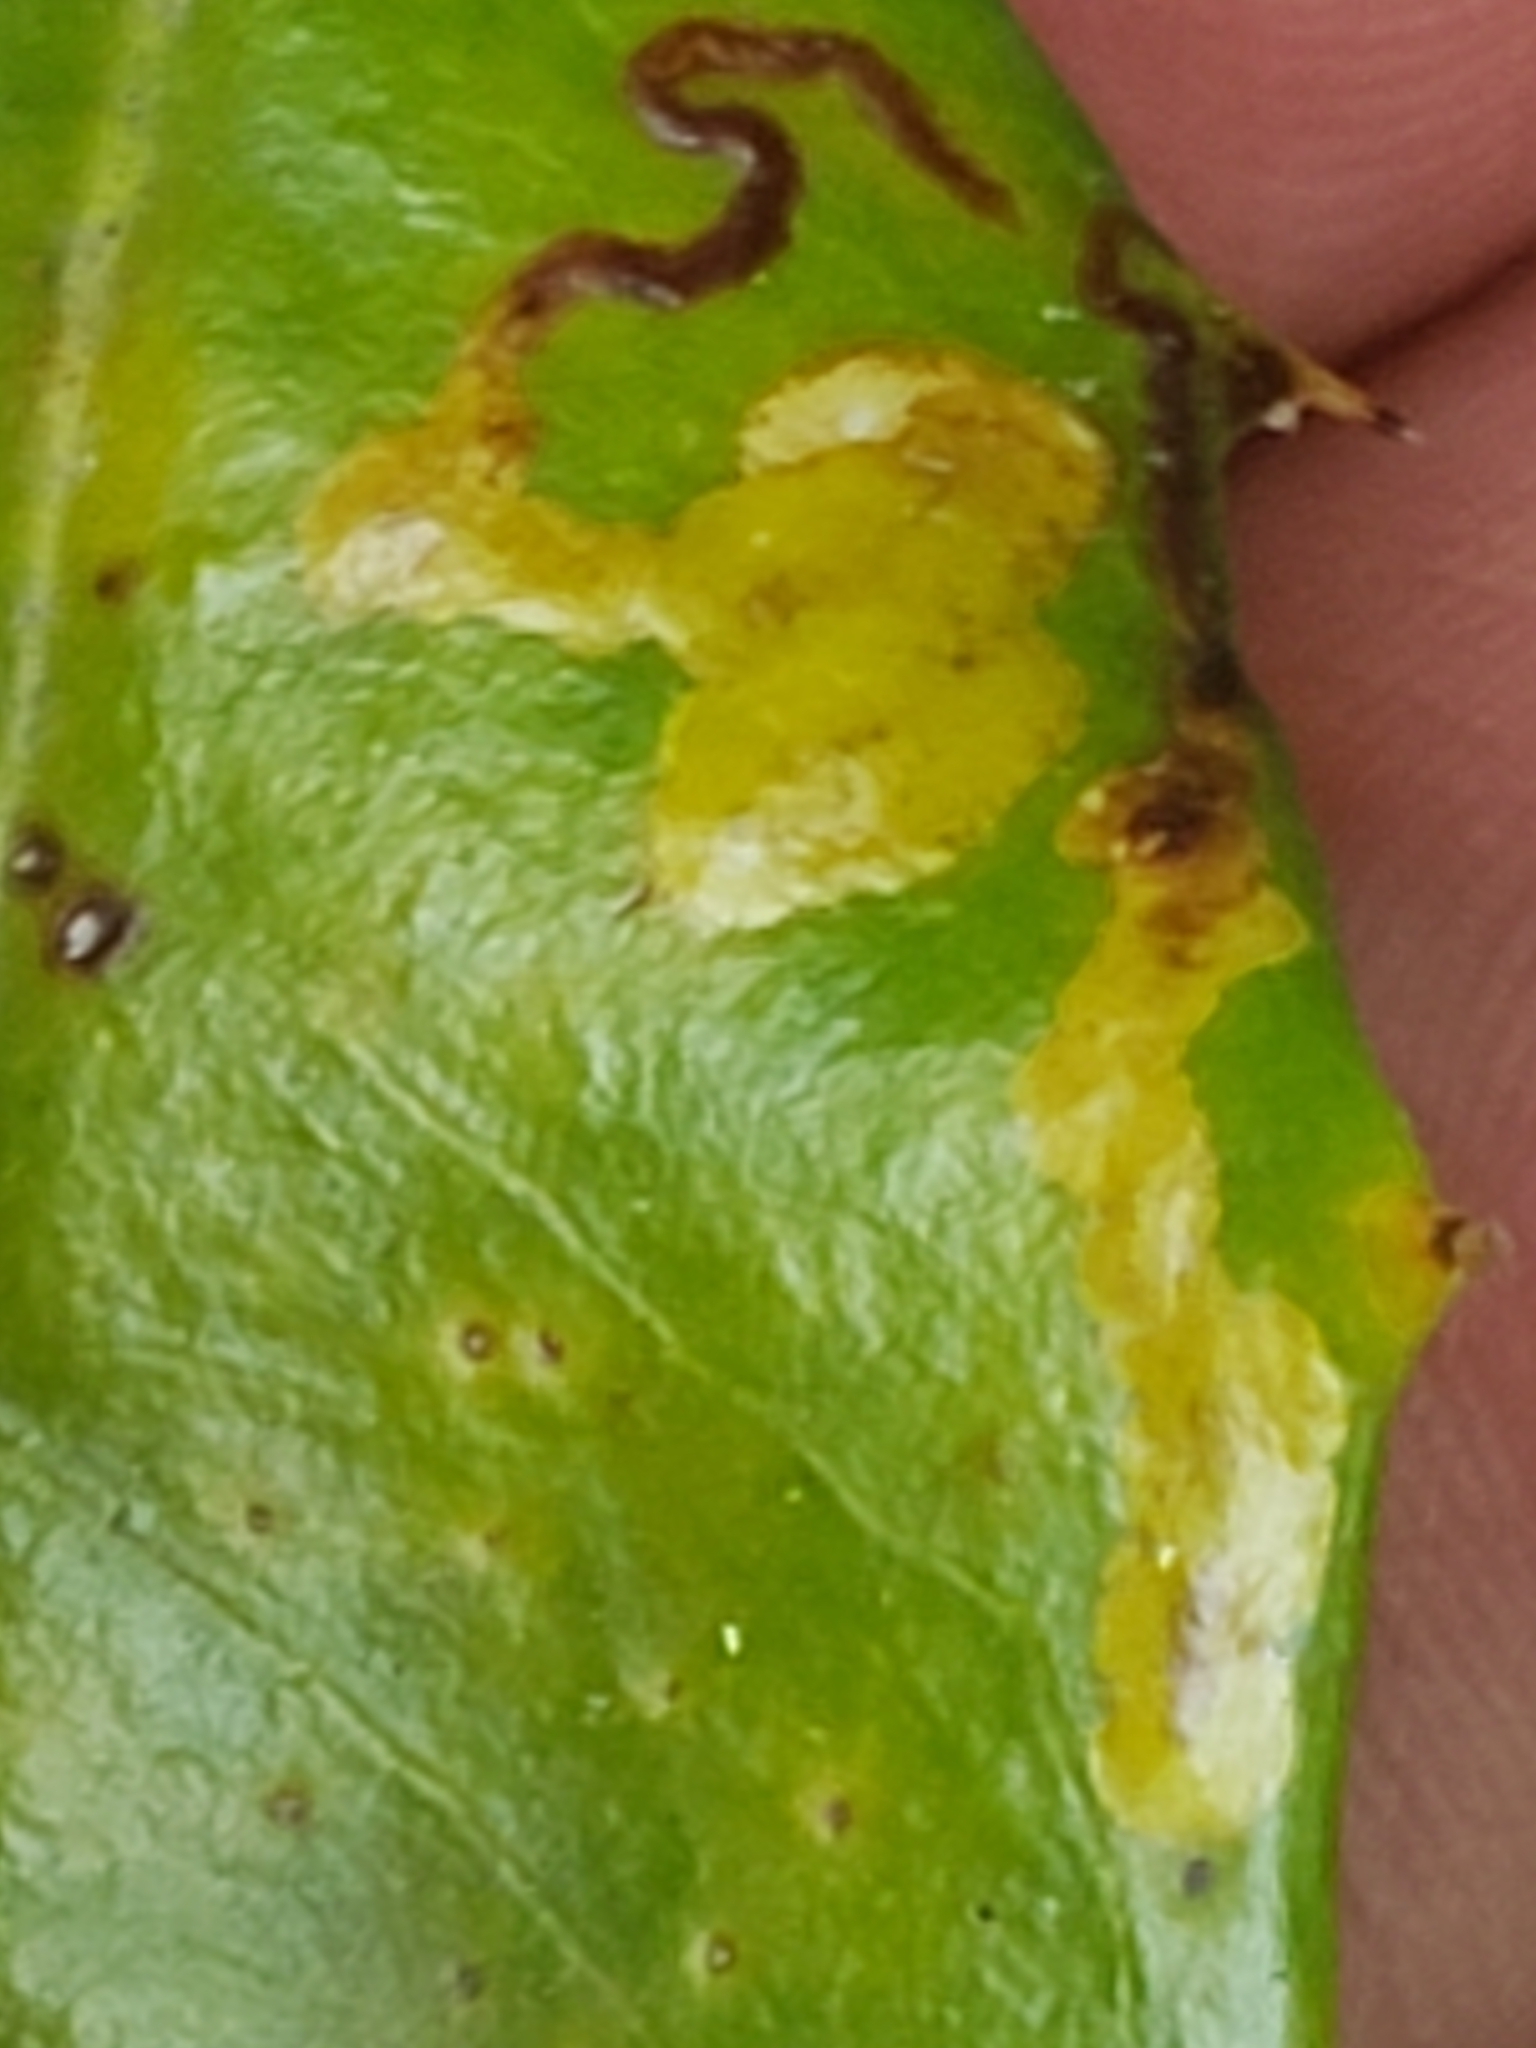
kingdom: Animalia
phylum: Arthropoda
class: Insecta
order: Diptera
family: Agromyzidae
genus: Phytomyza
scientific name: Phytomyza ilicicola
